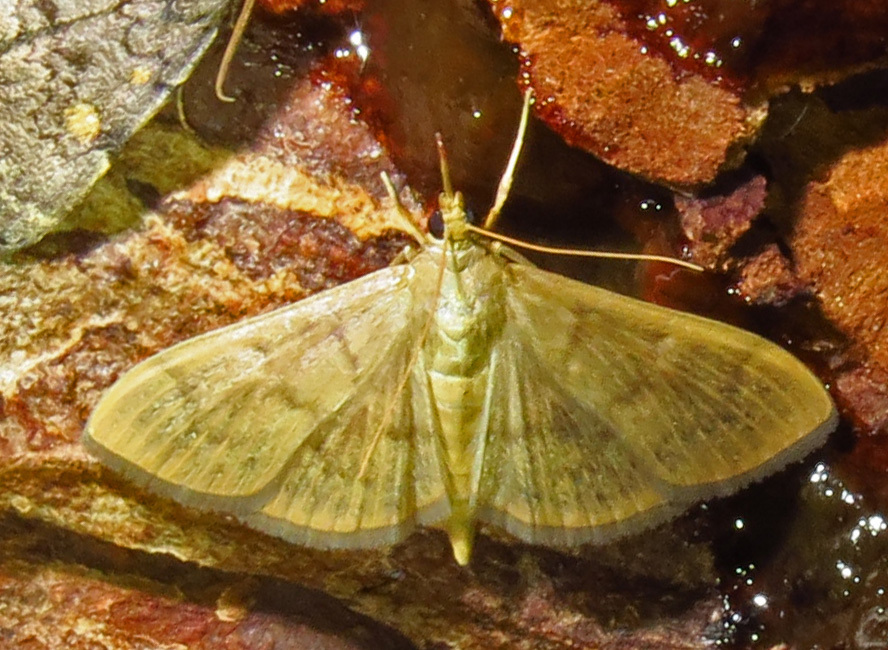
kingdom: Animalia
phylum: Arthropoda
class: Insecta
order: Lepidoptera
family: Crambidae
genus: Pleuroptya
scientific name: Pleuroptya silicalis
